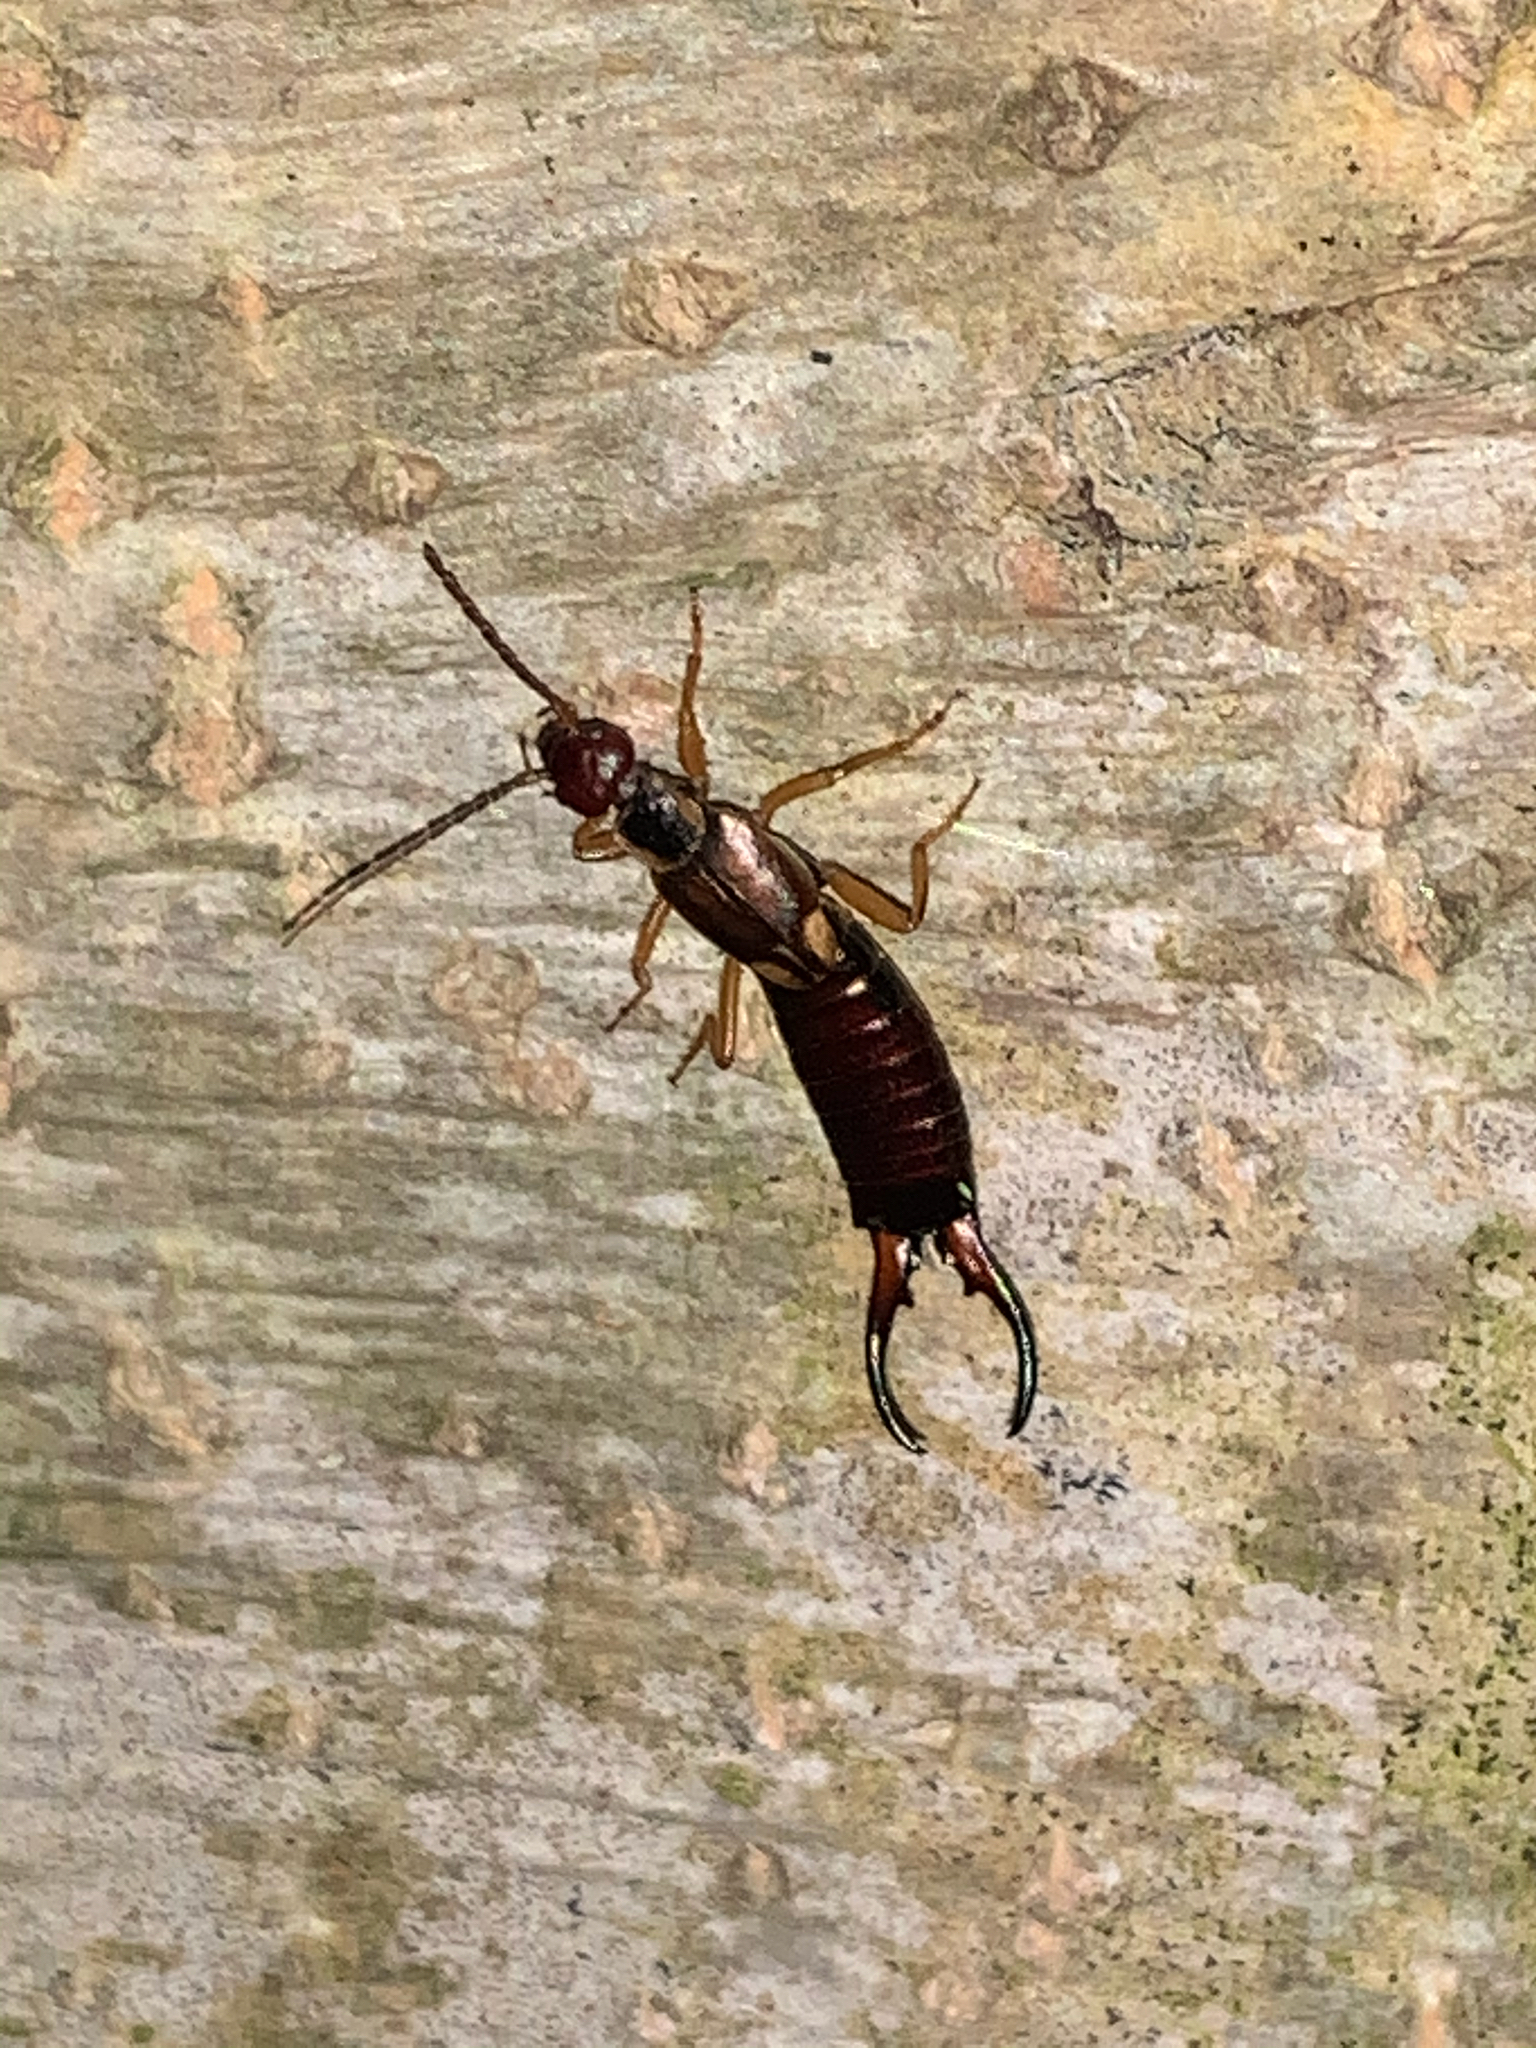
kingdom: Animalia
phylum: Arthropoda
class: Insecta
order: Dermaptera
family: Forficulidae
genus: Forficula
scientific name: Forficula
